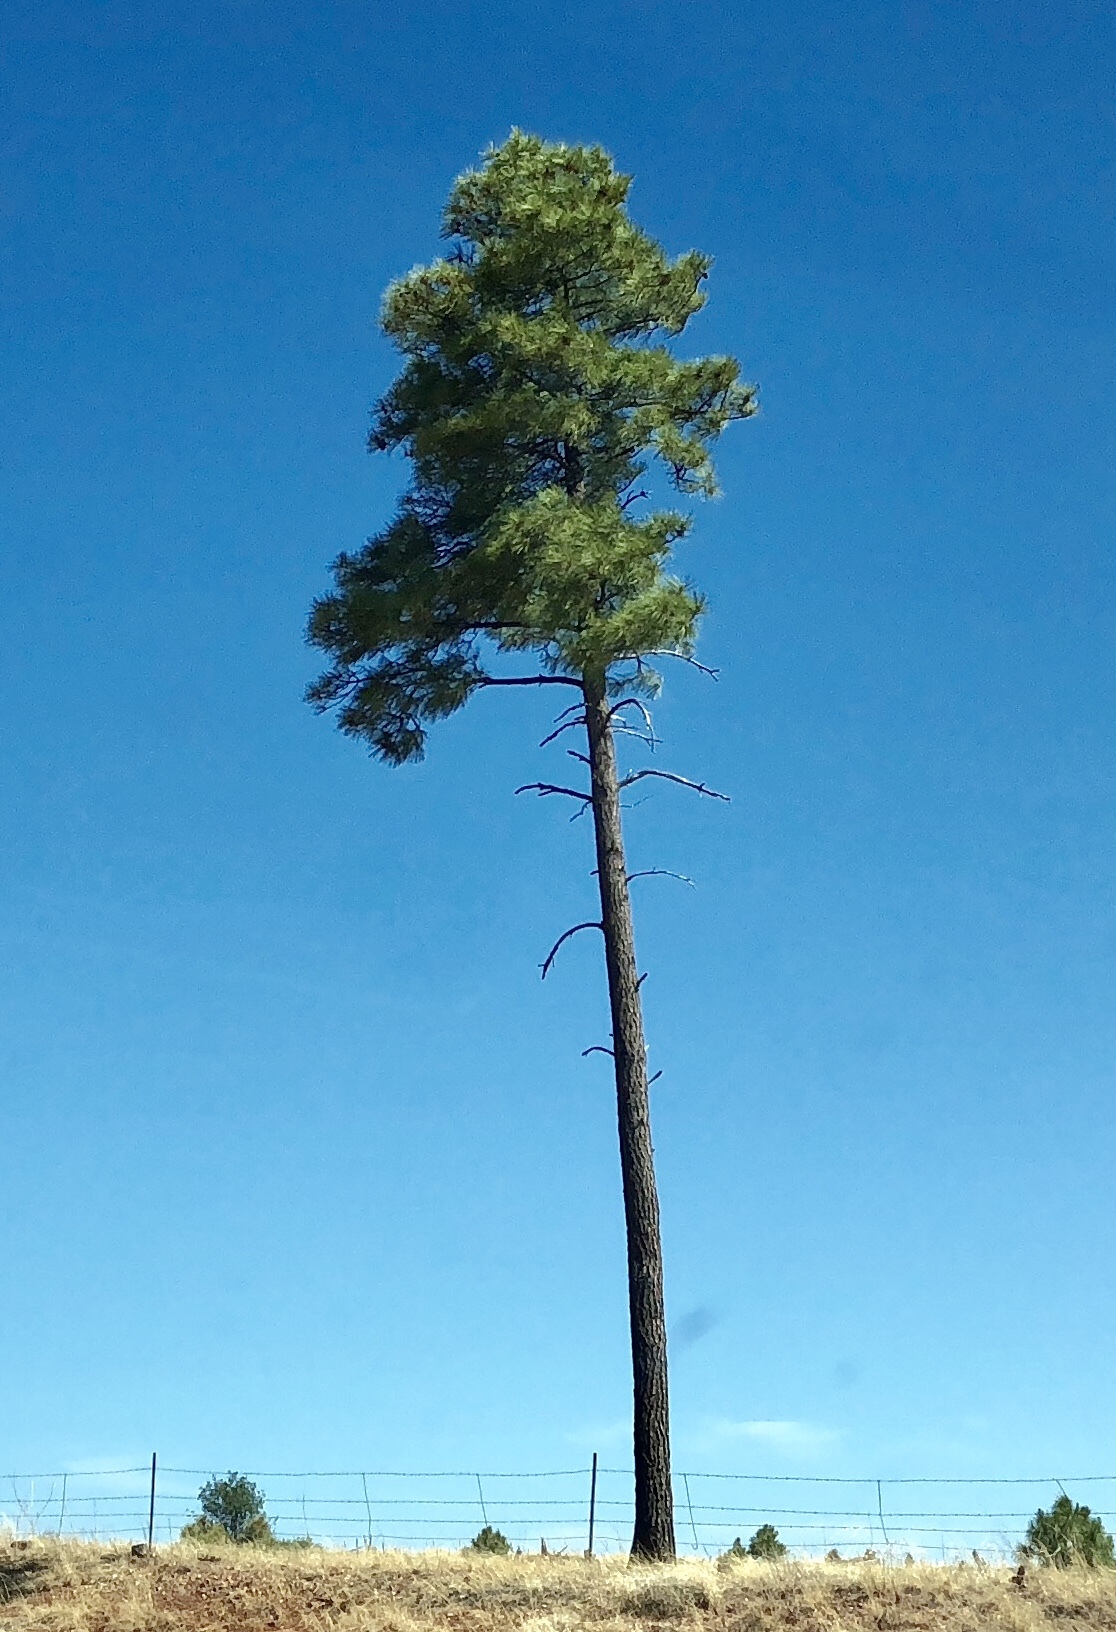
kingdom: Plantae
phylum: Tracheophyta
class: Pinopsida
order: Pinales
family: Pinaceae
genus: Pinus
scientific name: Pinus ponderosa
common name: Western yellow-pine
